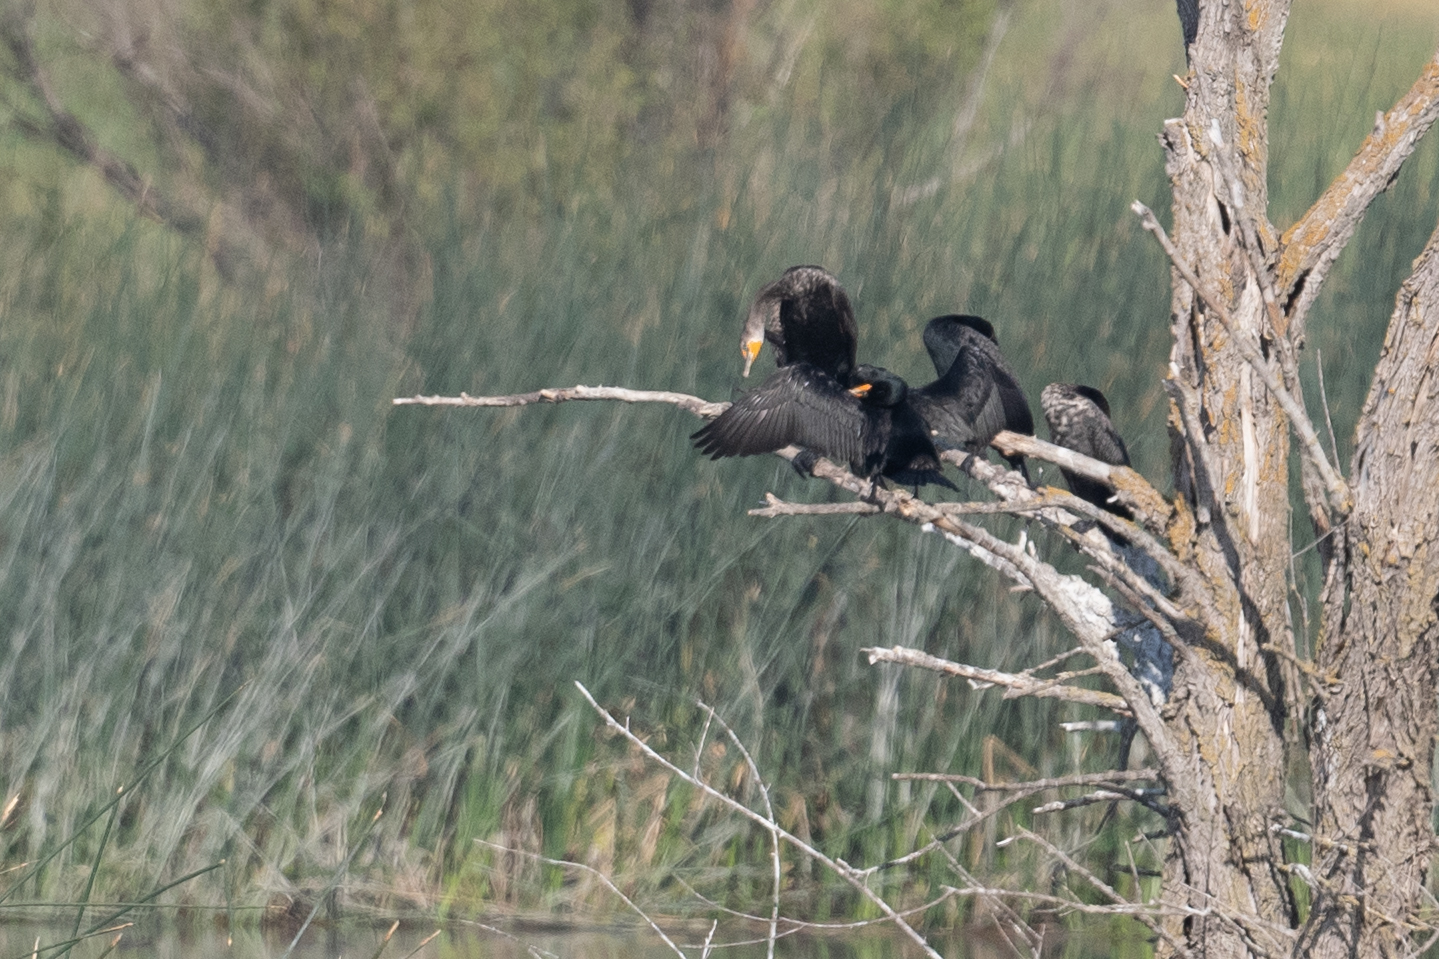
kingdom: Animalia
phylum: Chordata
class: Aves
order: Suliformes
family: Phalacrocoracidae
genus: Phalacrocorax
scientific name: Phalacrocorax auritus
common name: Double-crested cormorant
